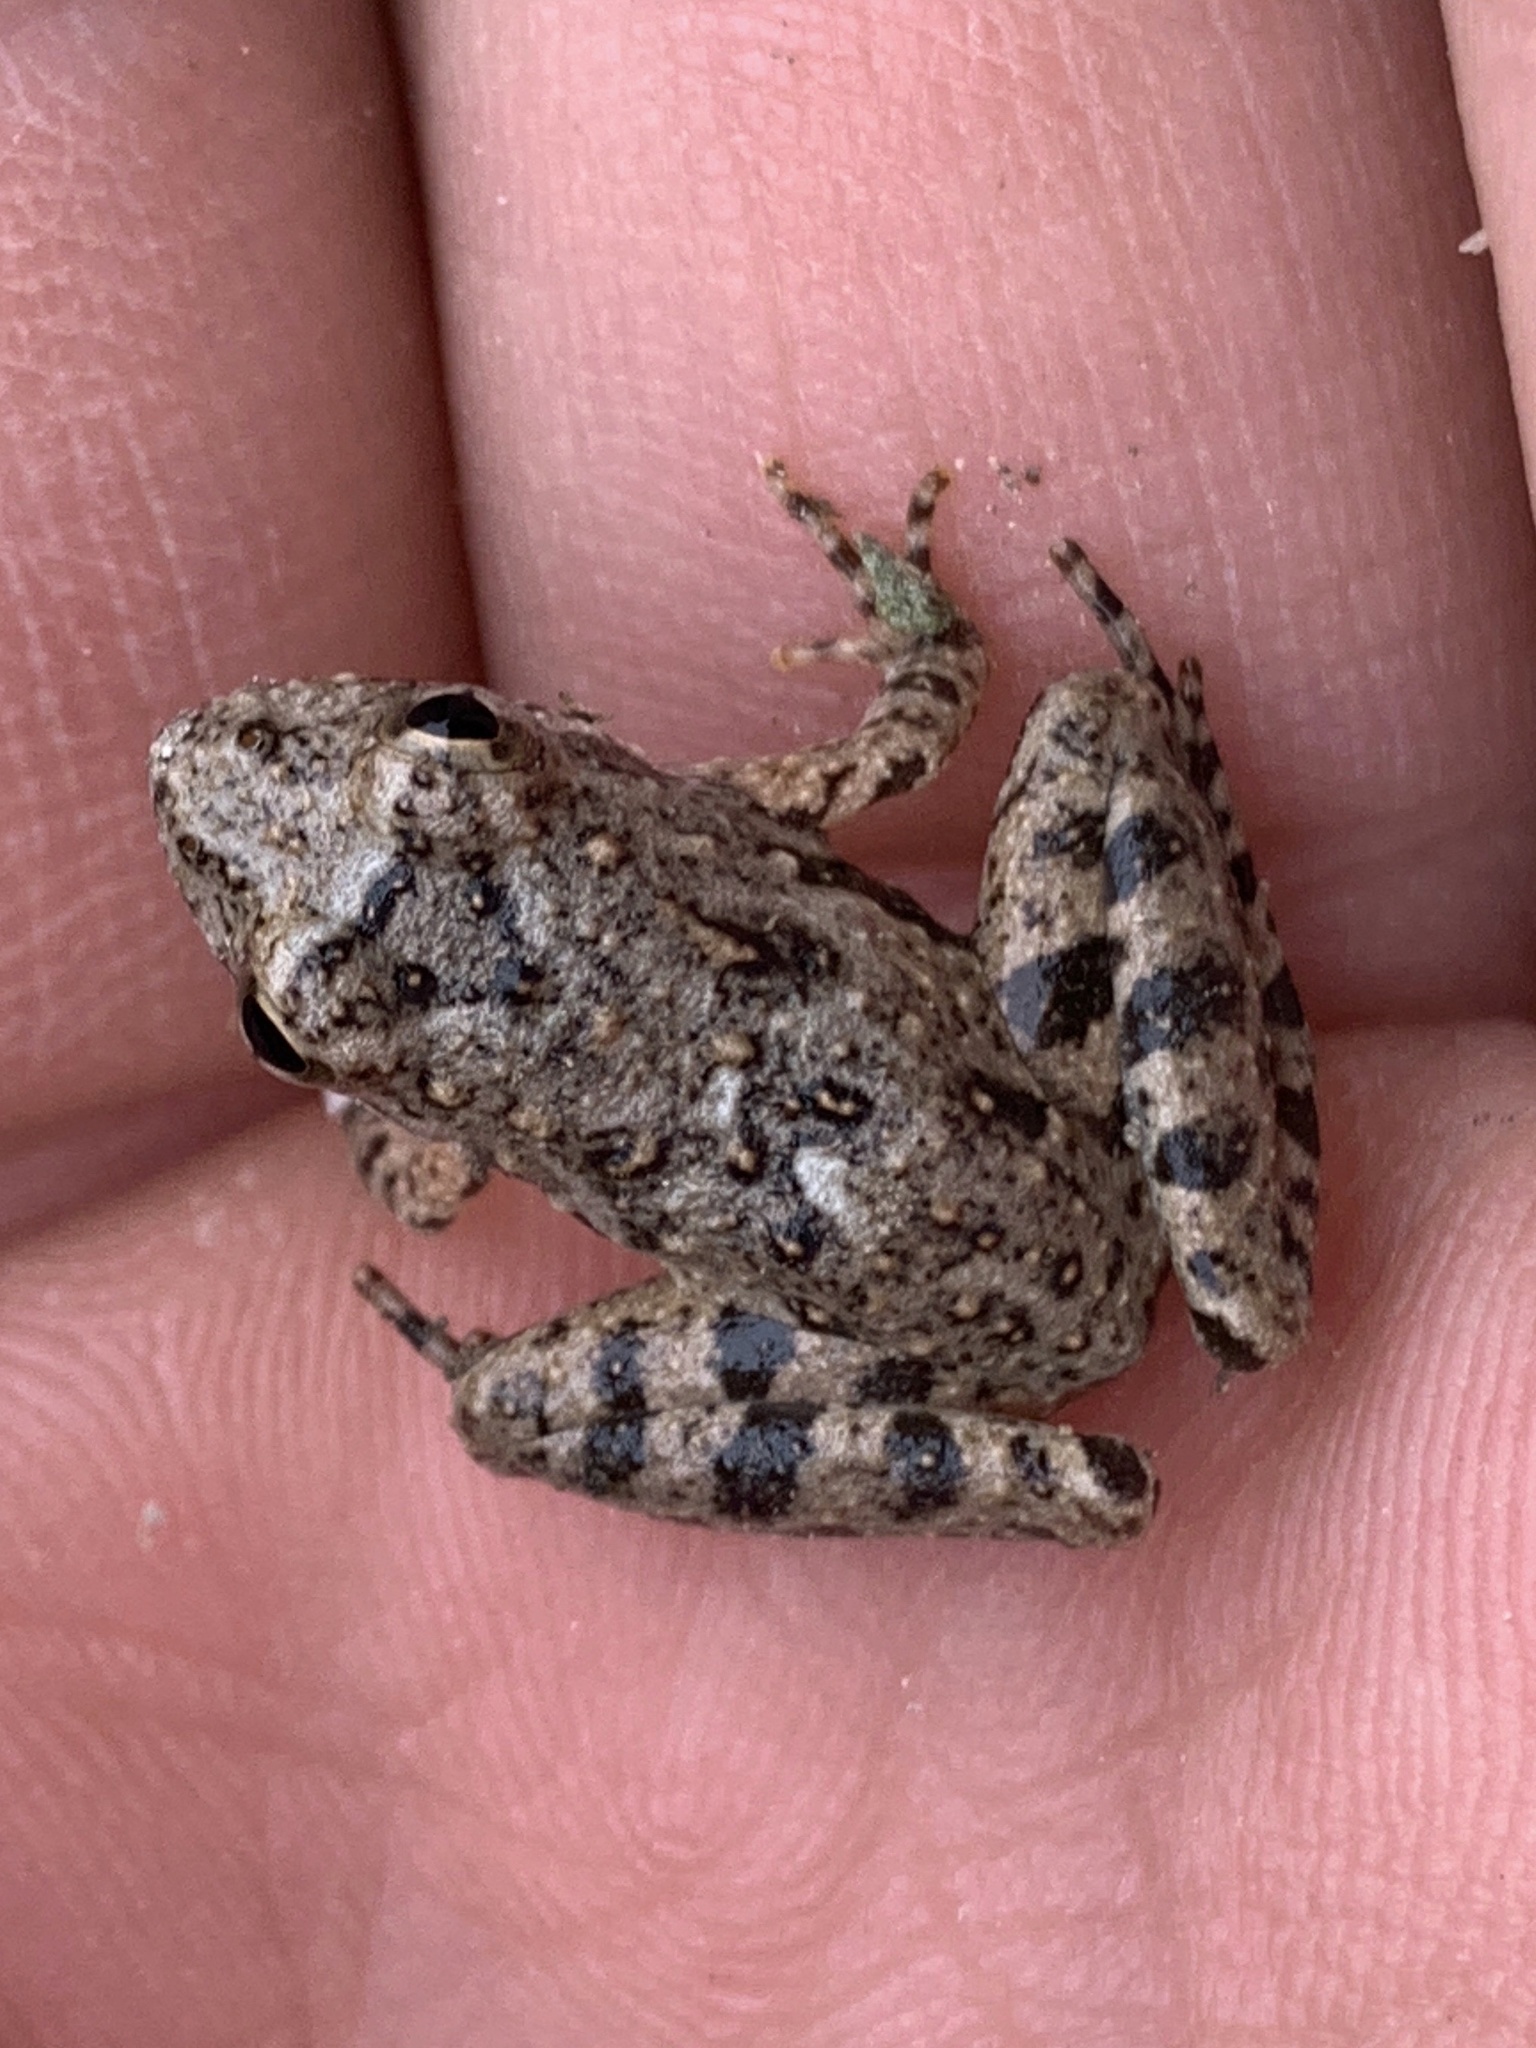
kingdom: Animalia
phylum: Chordata
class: Amphibia
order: Anura
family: Hylidae
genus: Acris
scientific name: Acris blanchardi
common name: Blanchard's cricket frog
